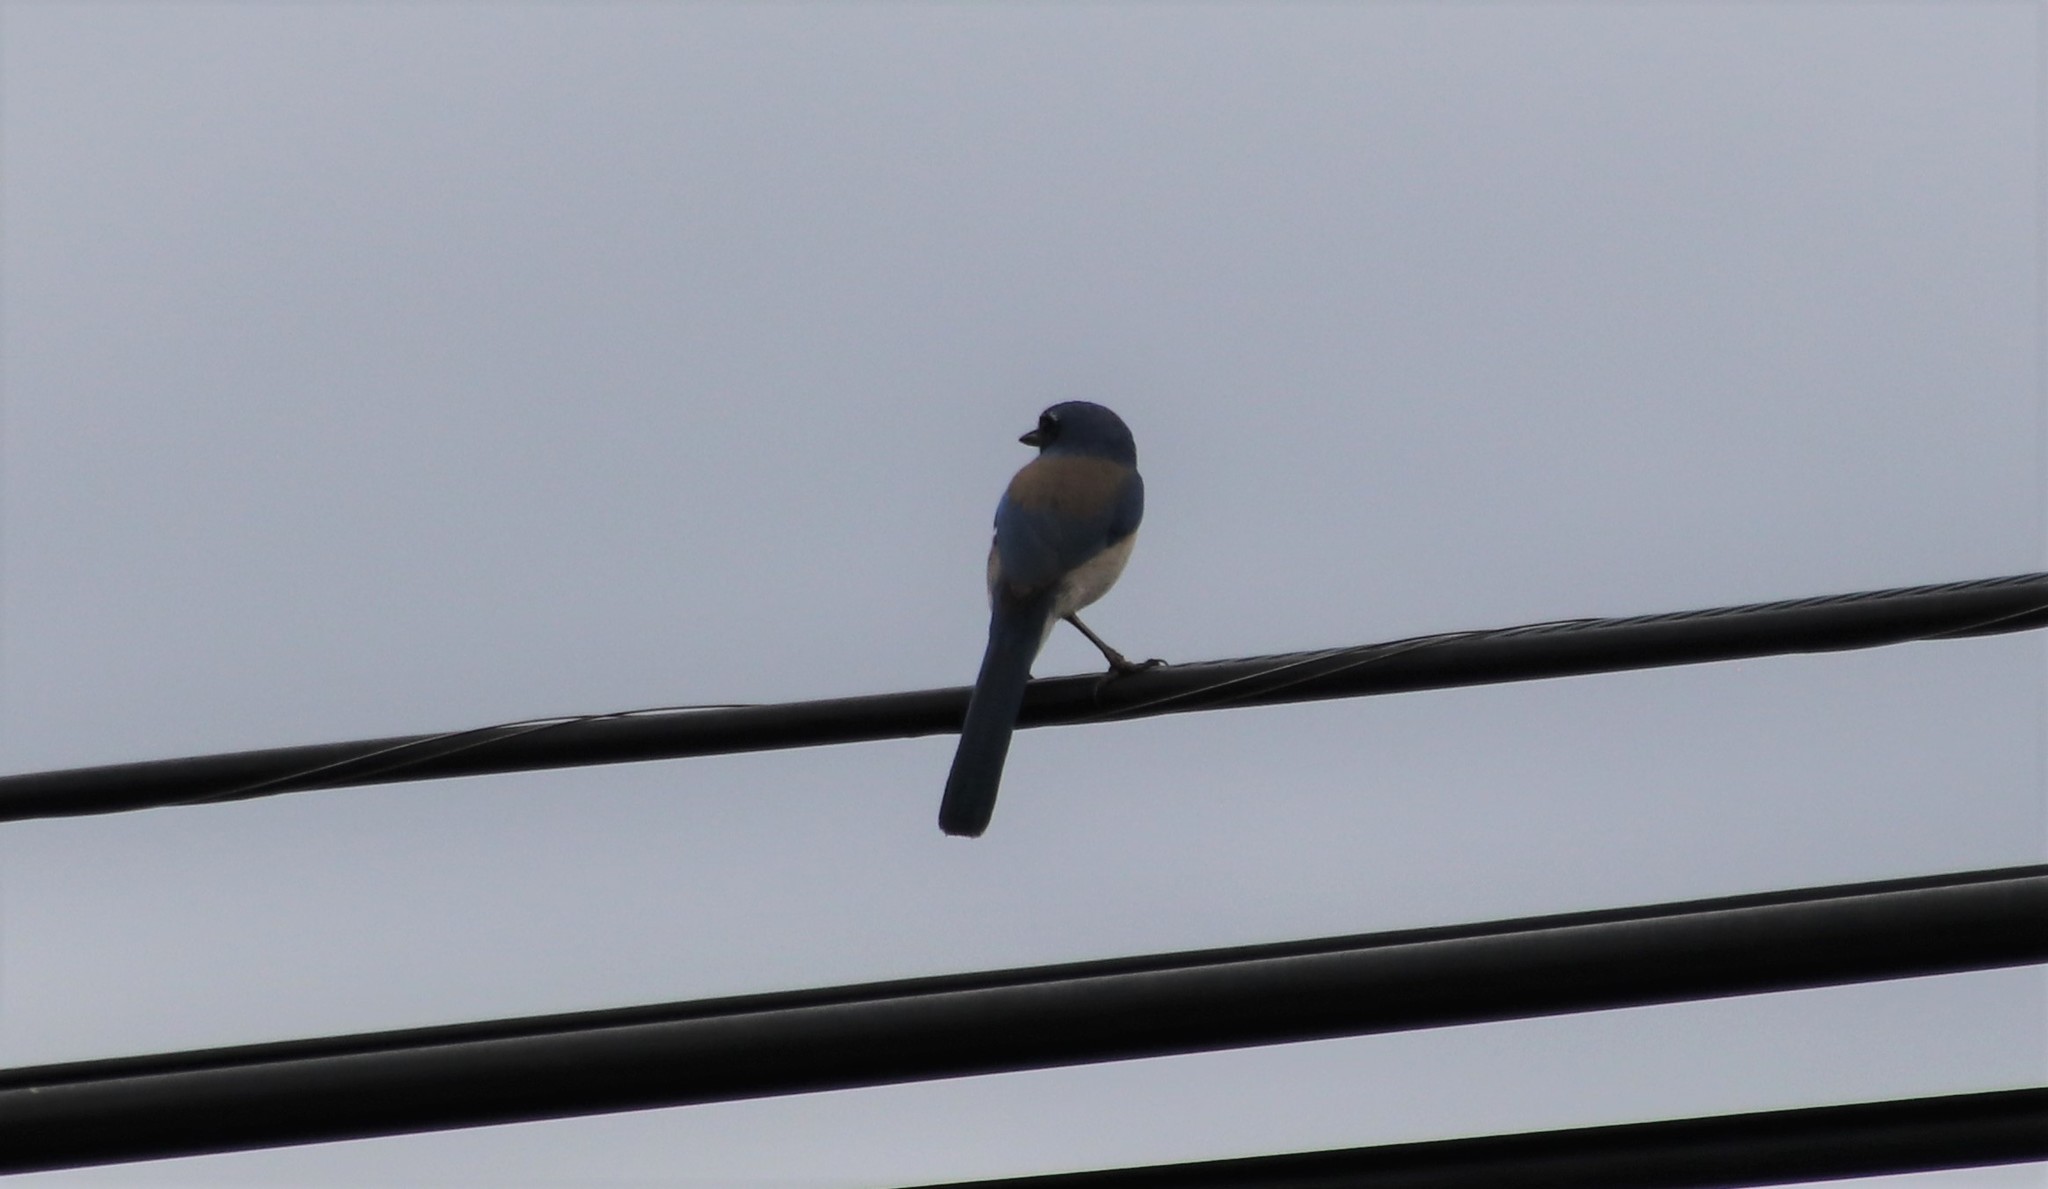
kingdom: Animalia
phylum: Chordata
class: Aves
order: Passeriformes
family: Corvidae
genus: Aphelocoma
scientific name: Aphelocoma californica
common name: California scrub-jay
